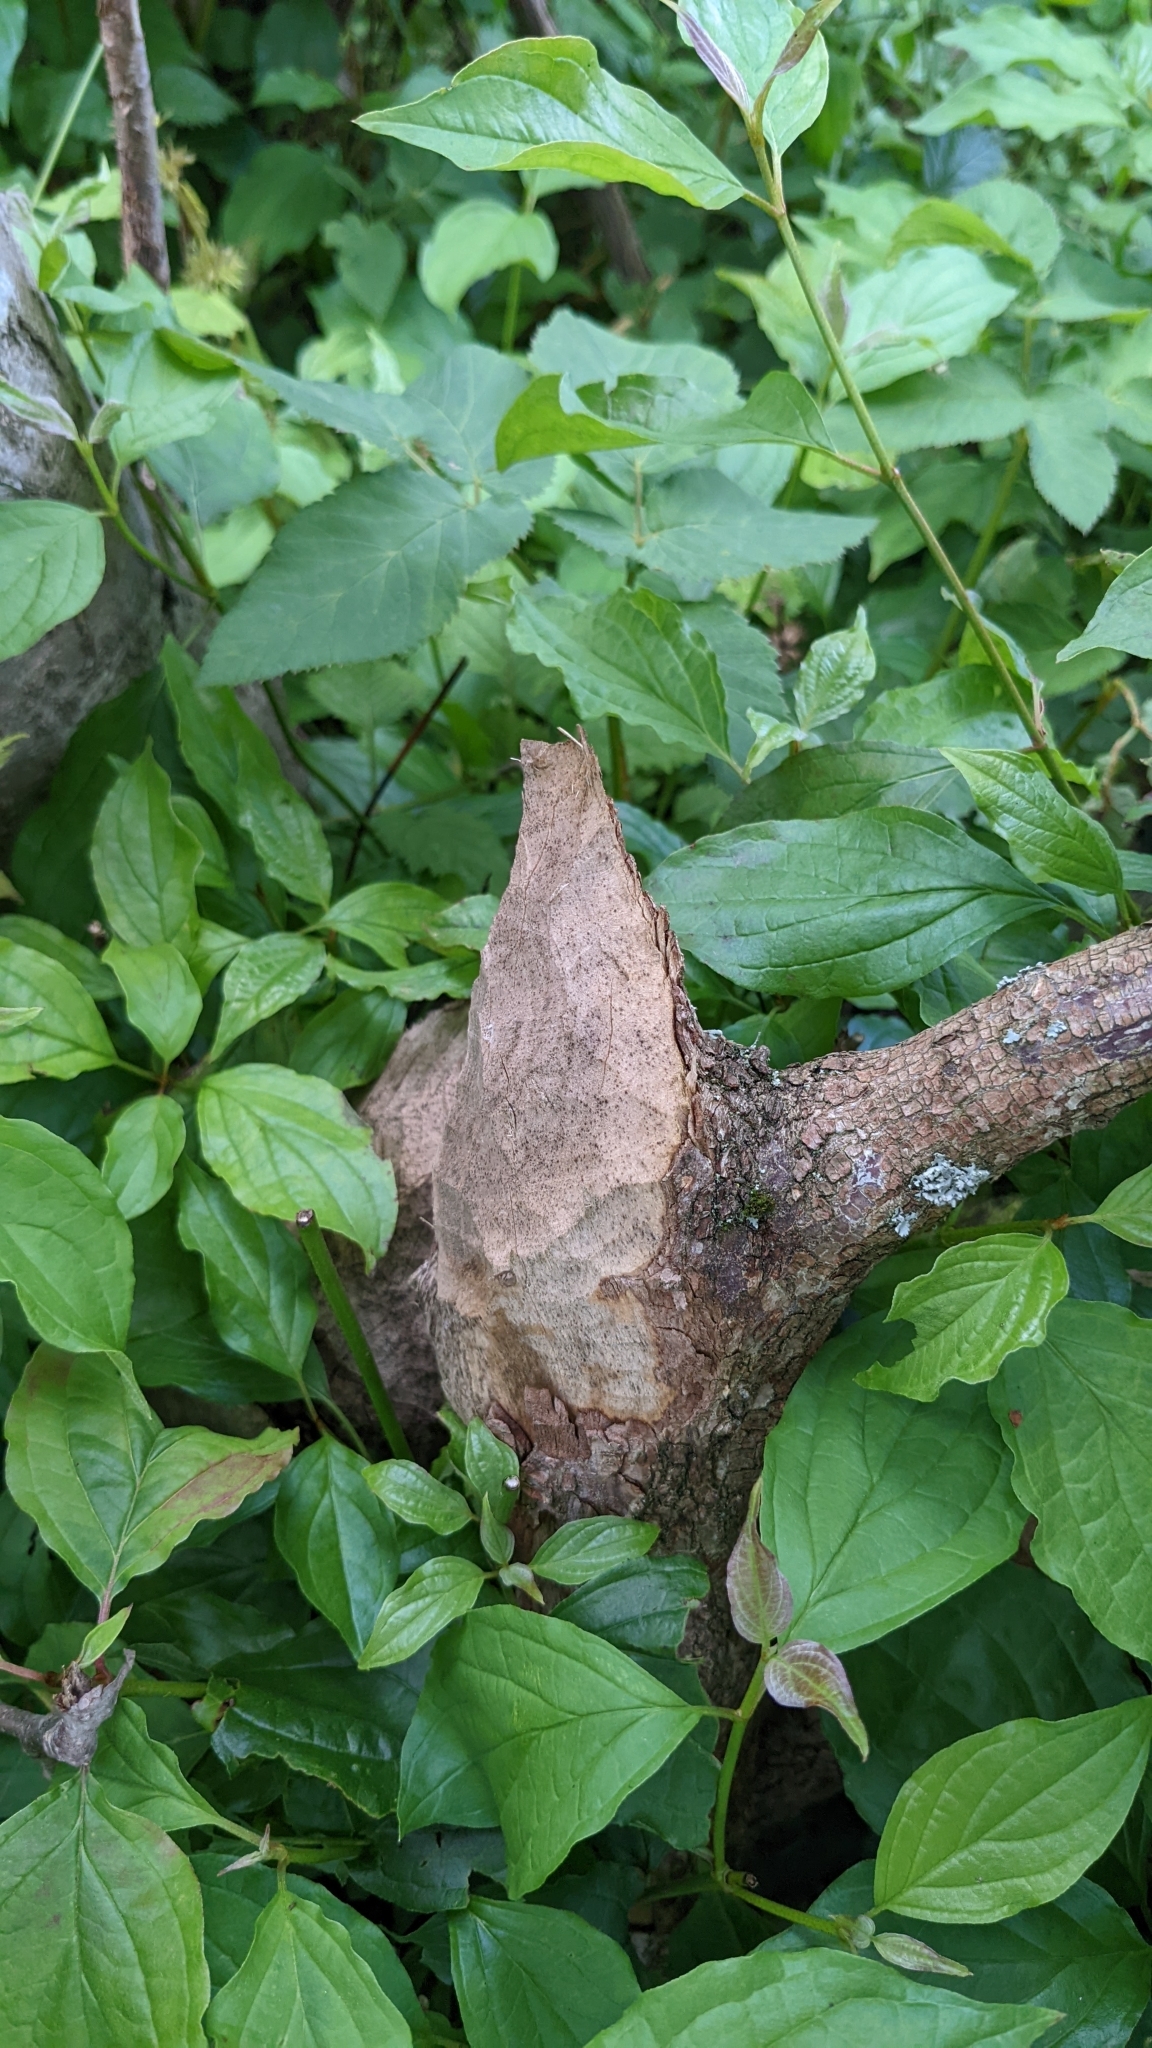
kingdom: Animalia
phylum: Chordata
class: Mammalia
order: Rodentia
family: Castoridae
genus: Castor
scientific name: Castor fiber
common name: Eurasian beaver
